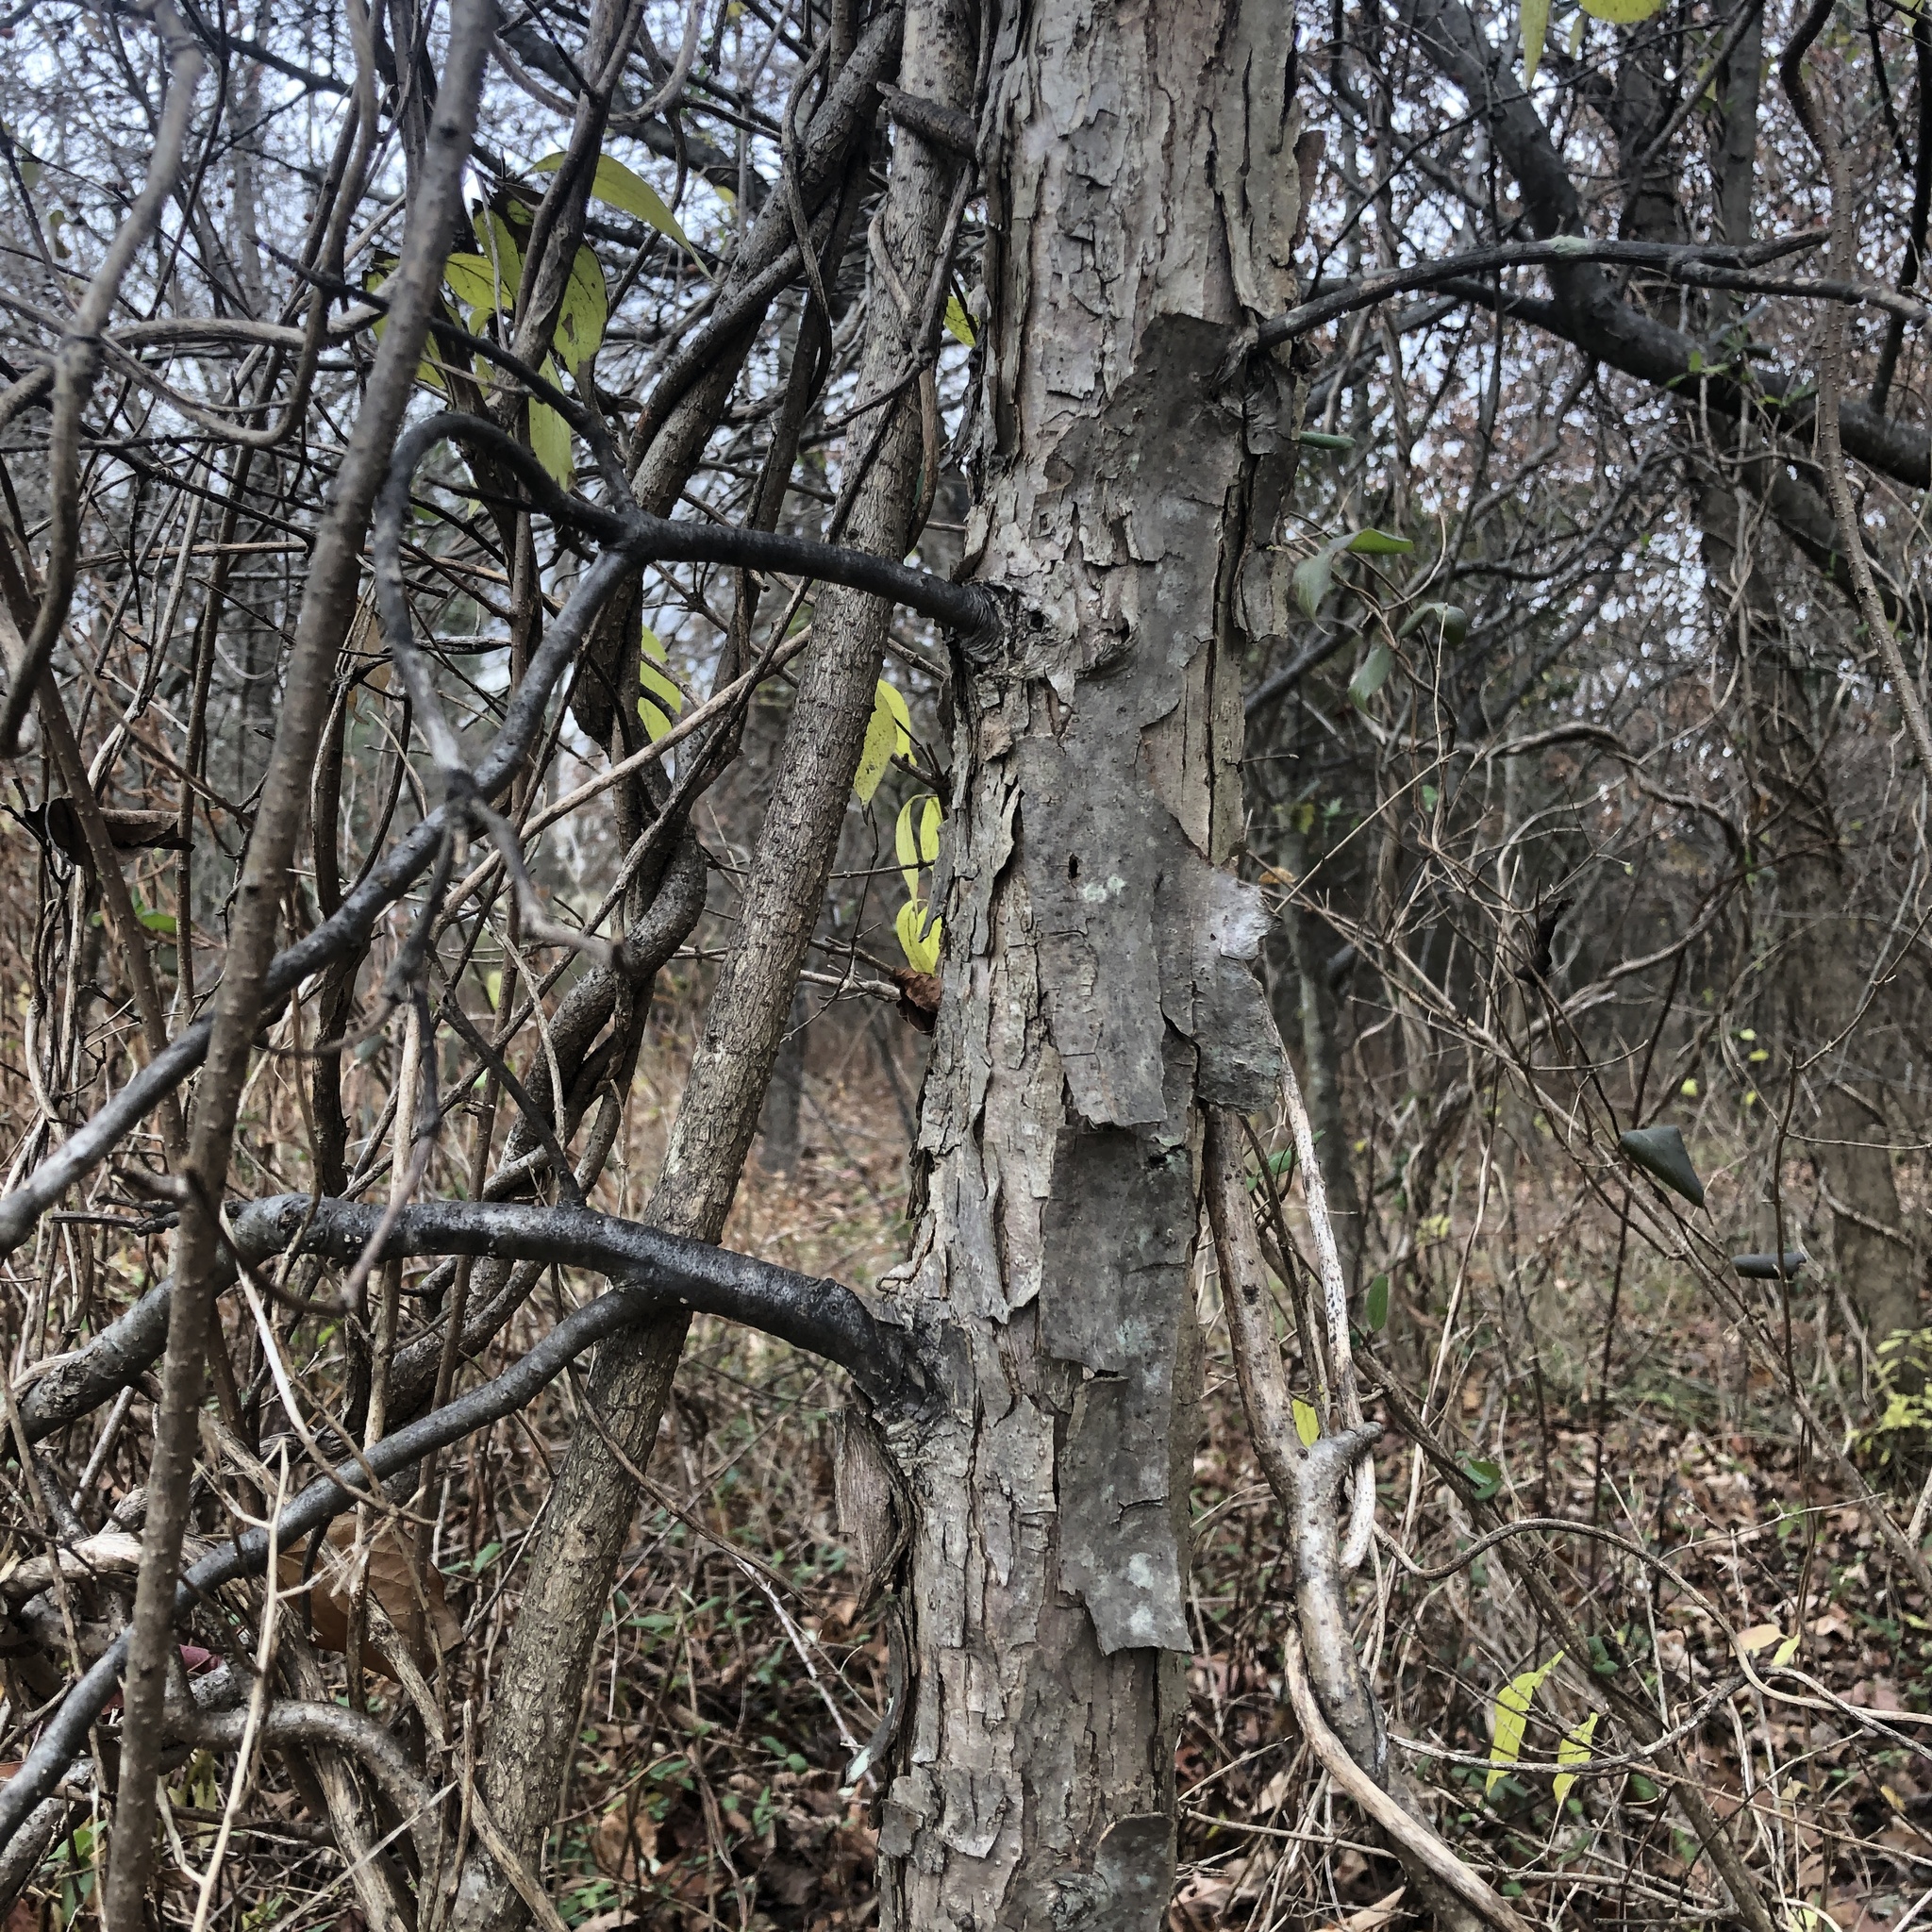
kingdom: Plantae
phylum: Tracheophyta
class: Magnoliopsida
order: Fagales
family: Fagaceae
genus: Quercus
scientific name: Quercus bicolor
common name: Swamp white oak
